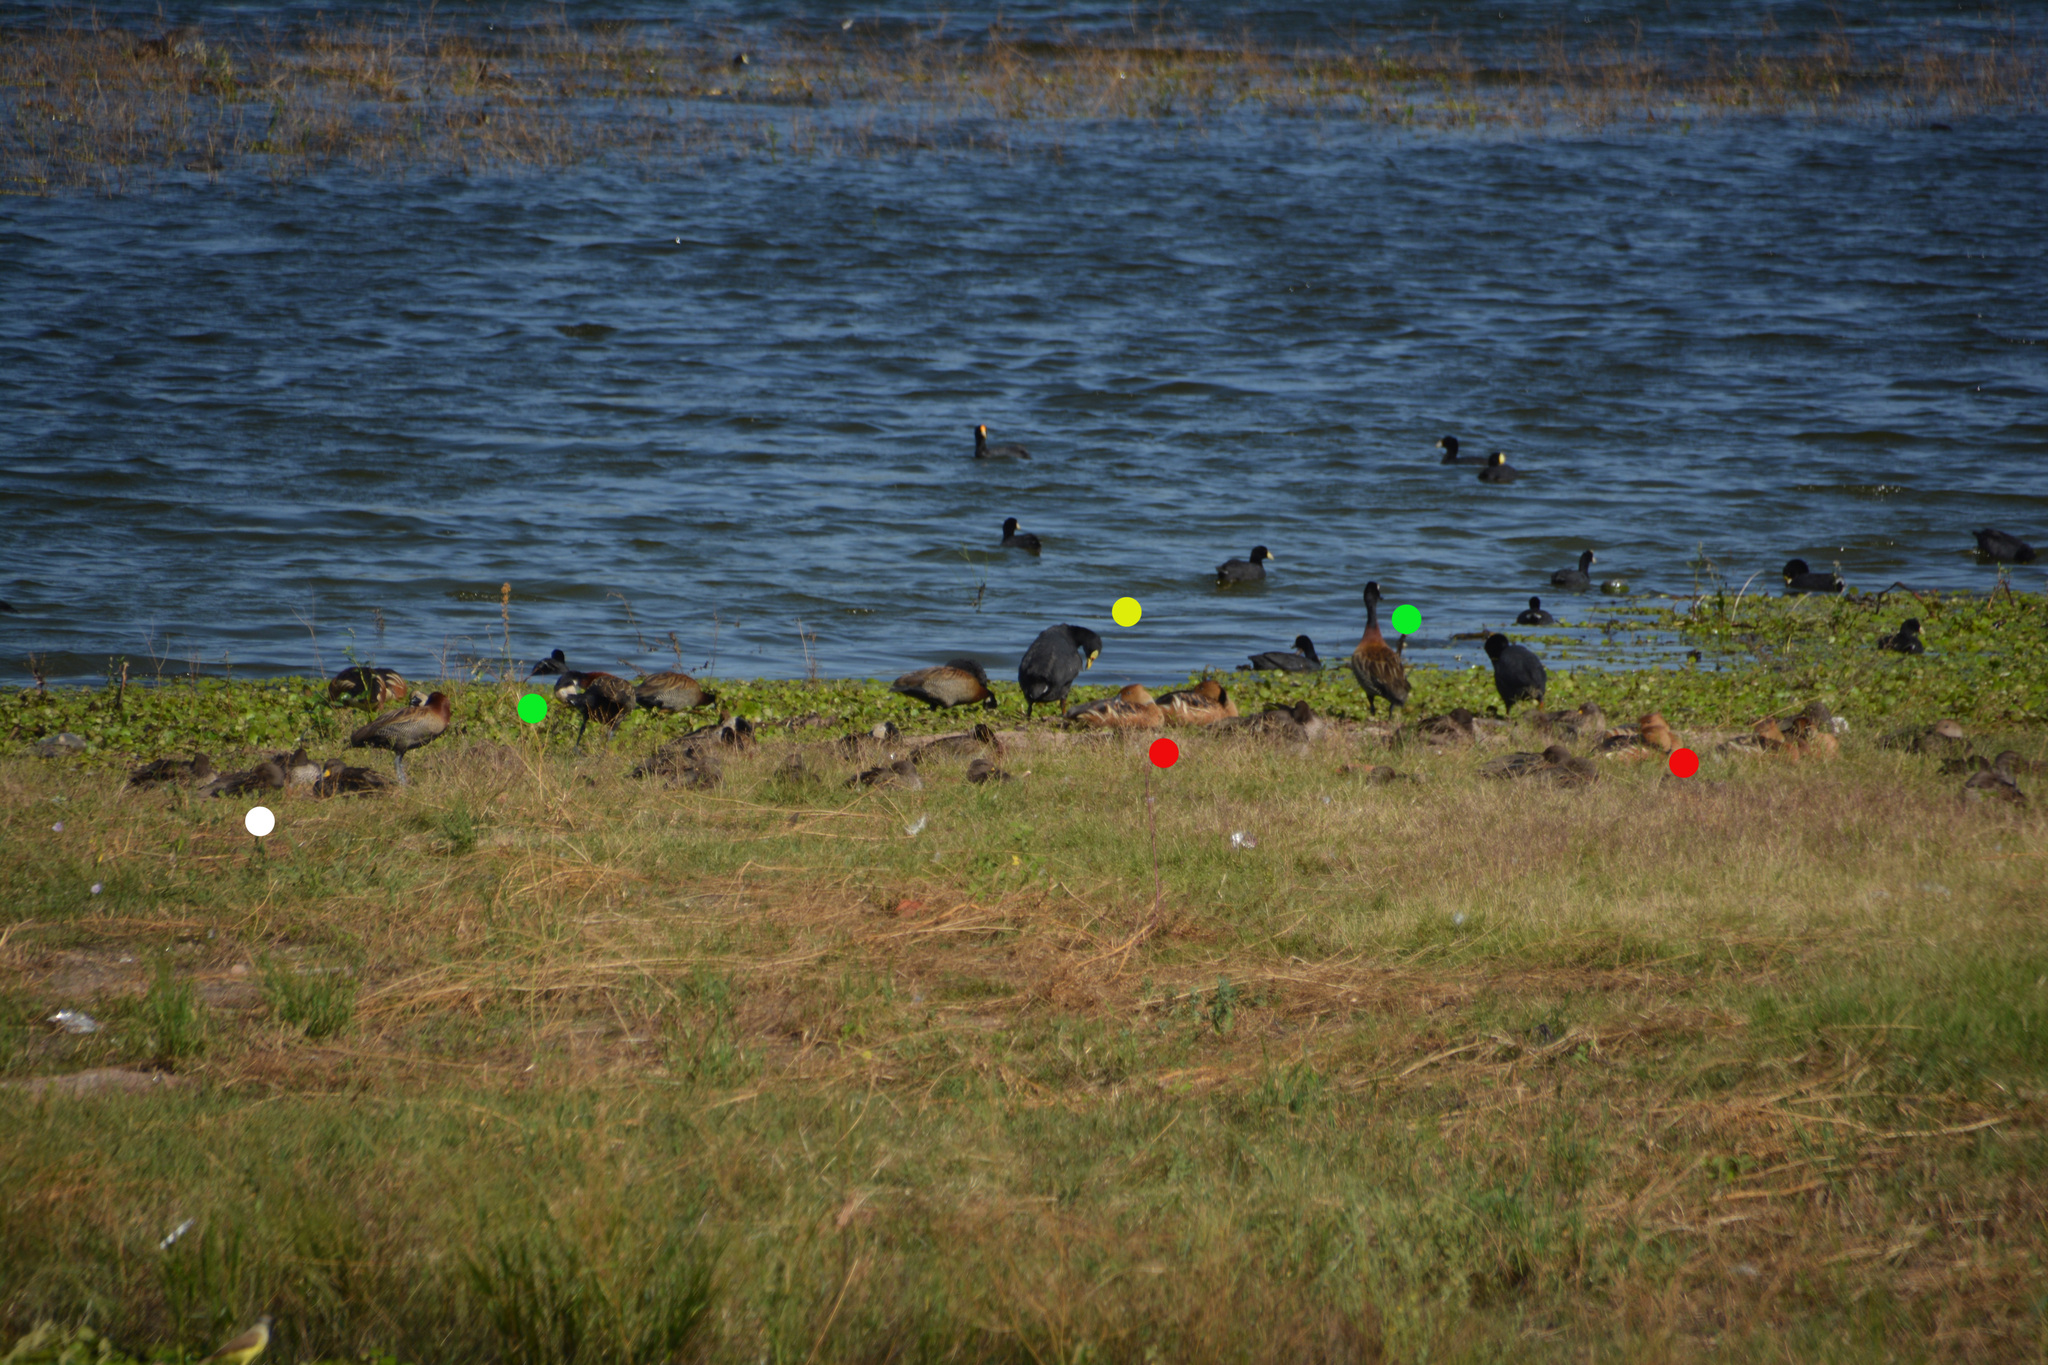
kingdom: Animalia
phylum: Chordata
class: Aves
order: Anseriformes
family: Anatidae
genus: Anas
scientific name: Anas flavirostris
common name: Yellow-billed teal
